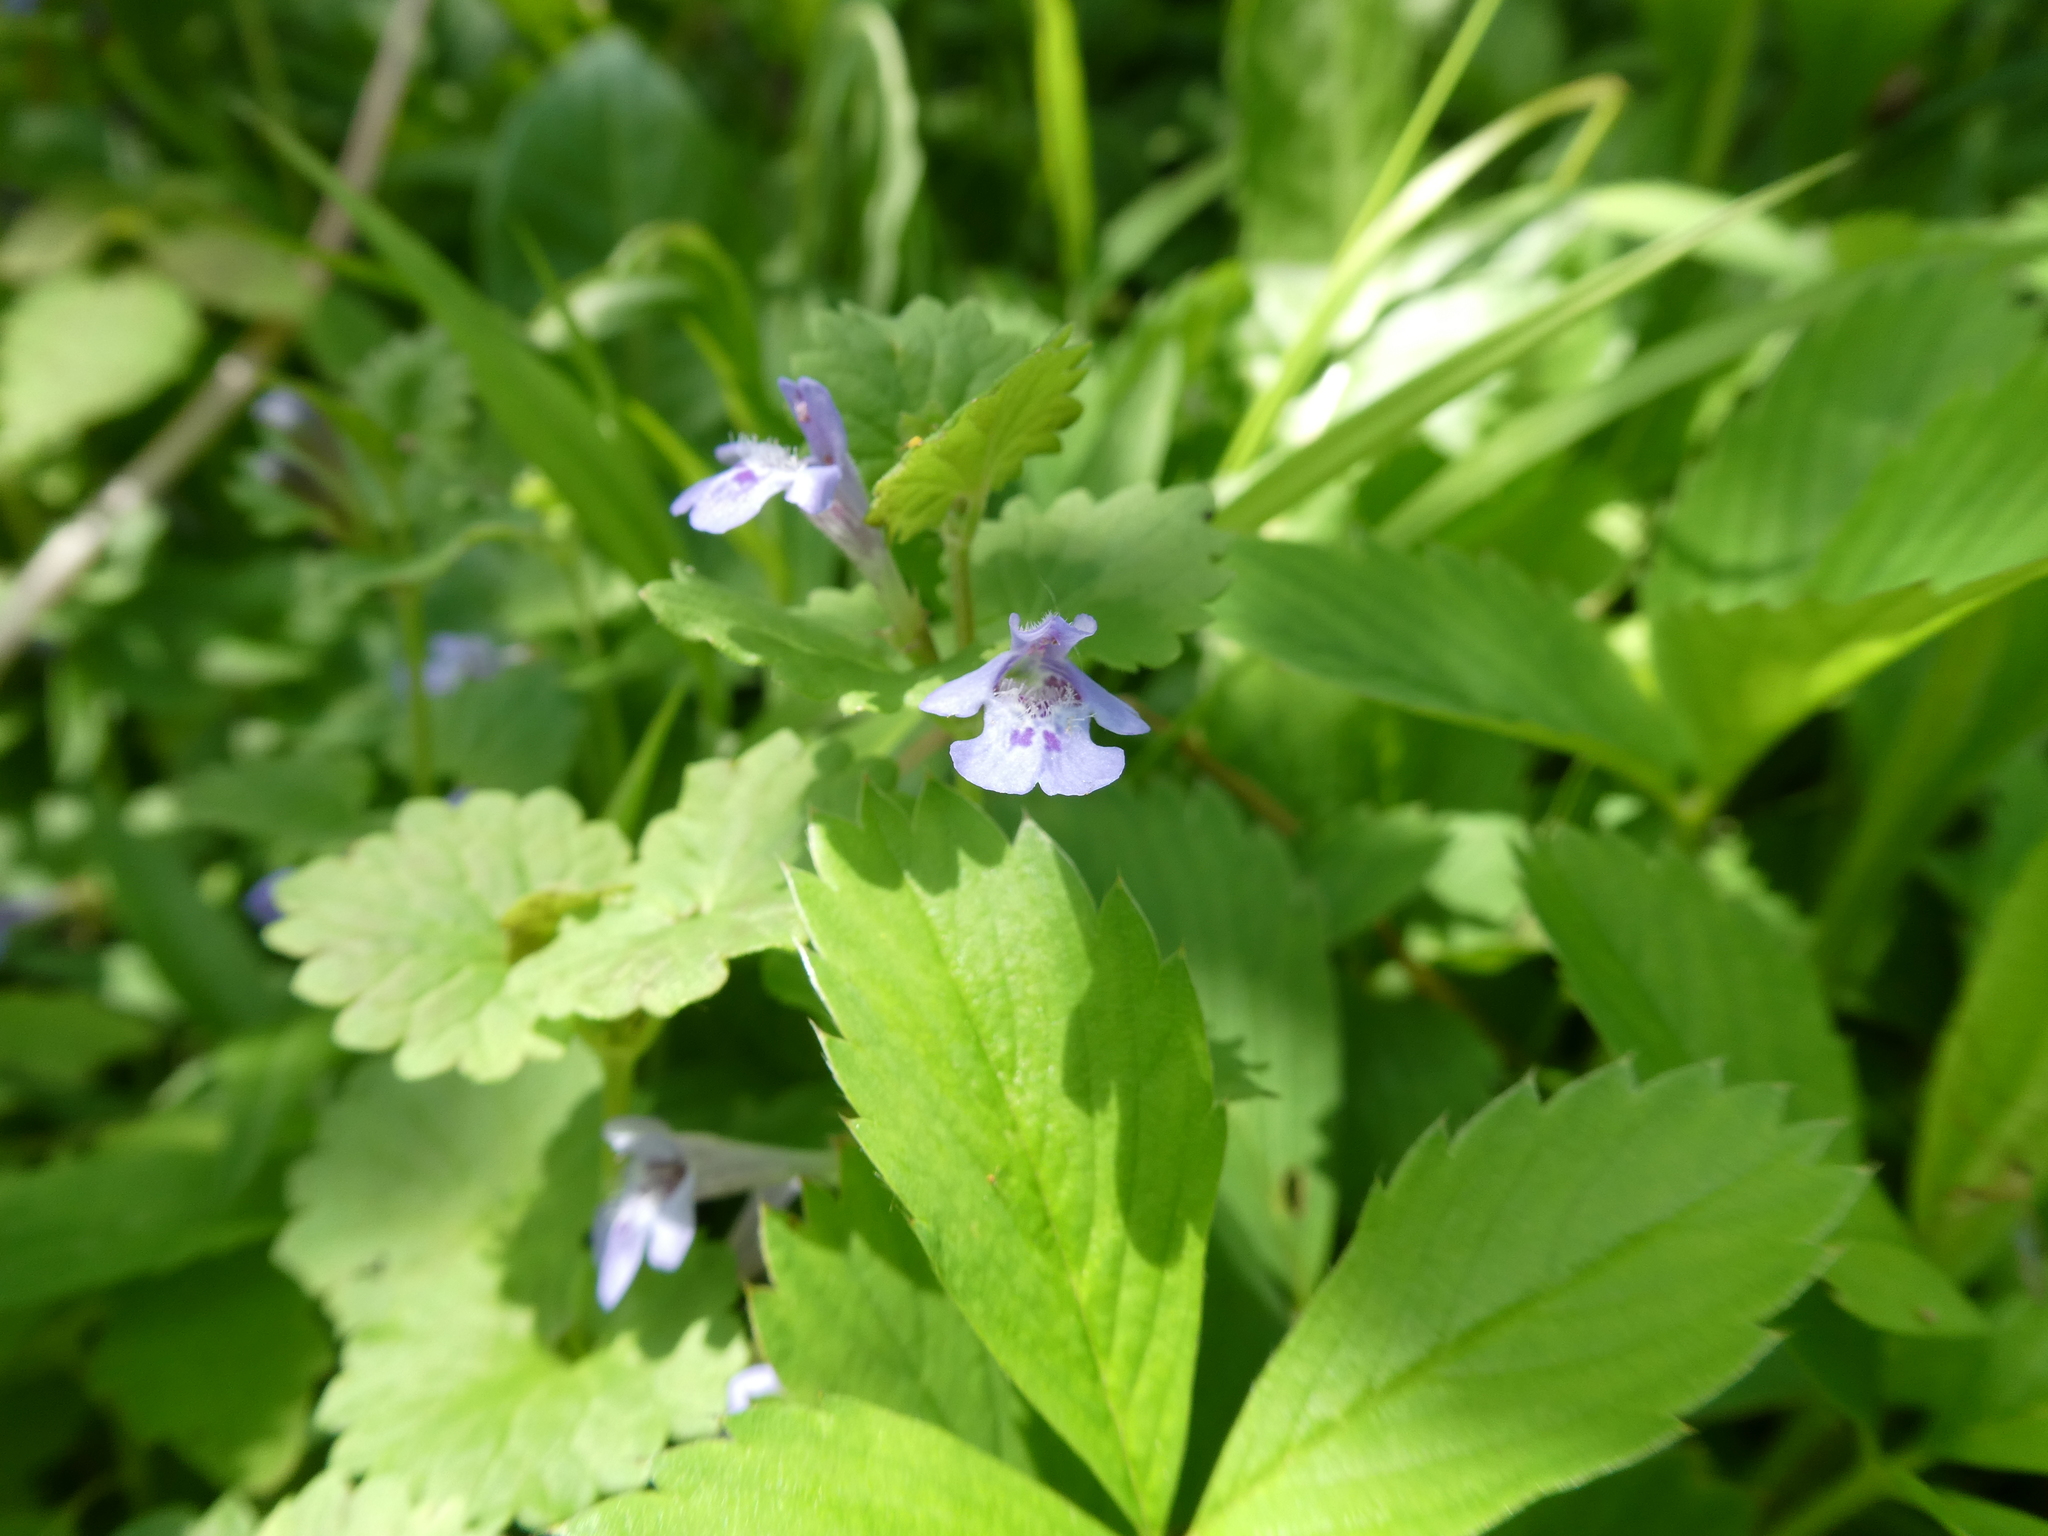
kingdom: Plantae
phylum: Tracheophyta
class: Magnoliopsida
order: Lamiales
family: Lamiaceae
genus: Glechoma
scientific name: Glechoma hederacea
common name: Ground ivy
